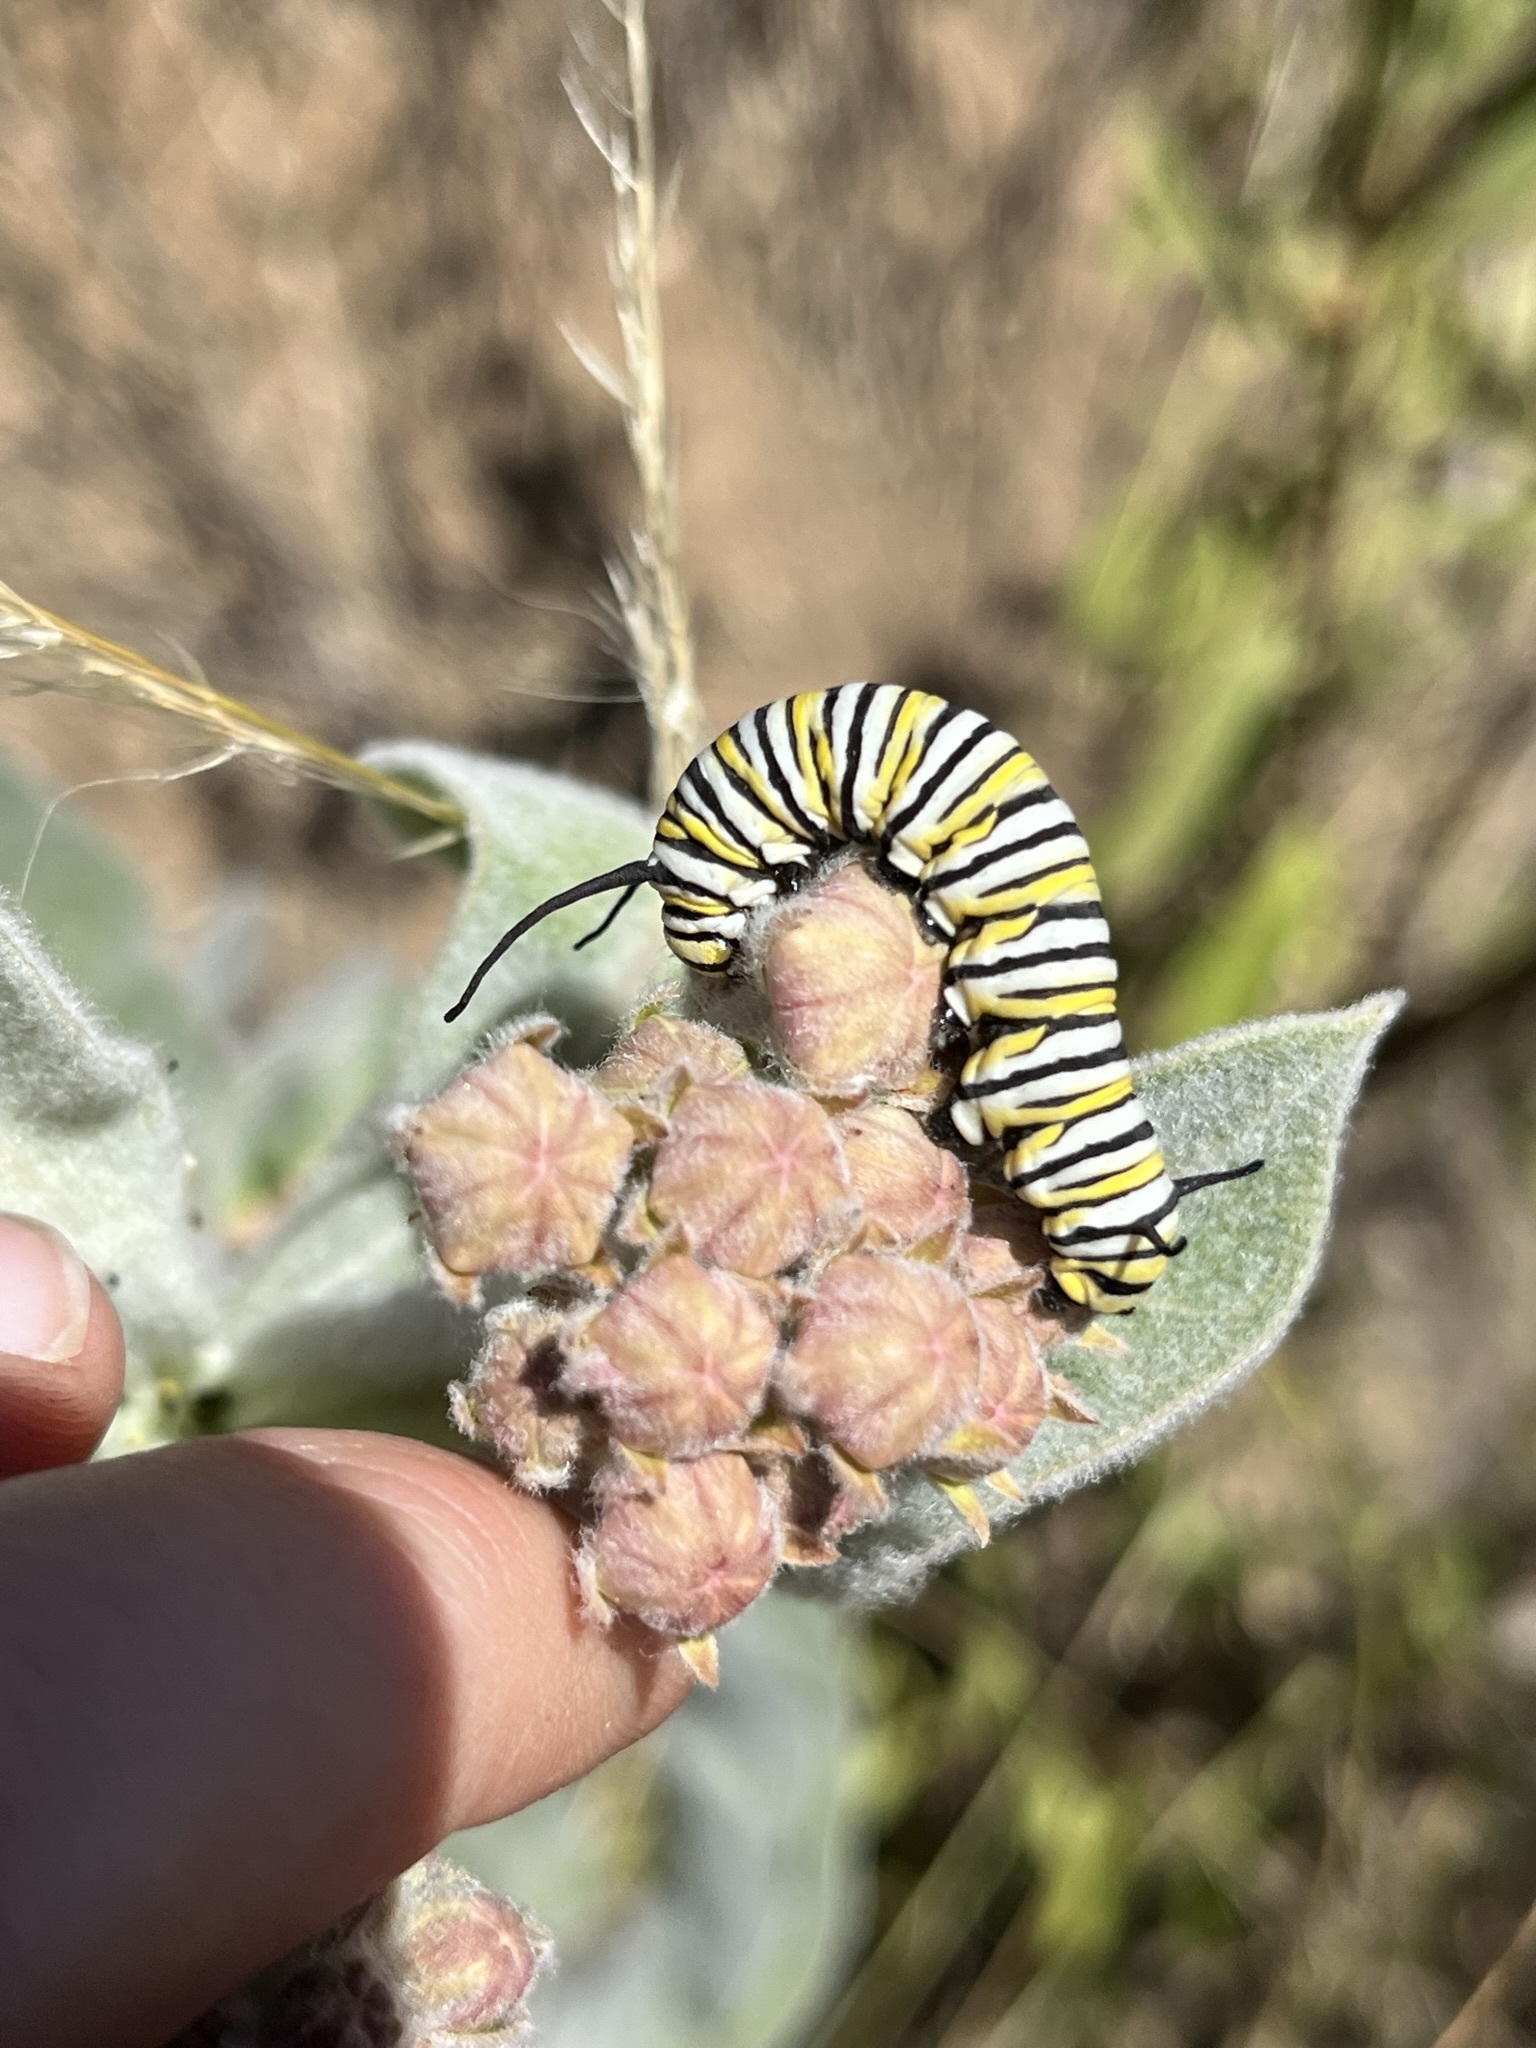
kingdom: Animalia
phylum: Arthropoda
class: Insecta
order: Lepidoptera
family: Nymphalidae
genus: Danaus
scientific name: Danaus plexippus
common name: Monarch
